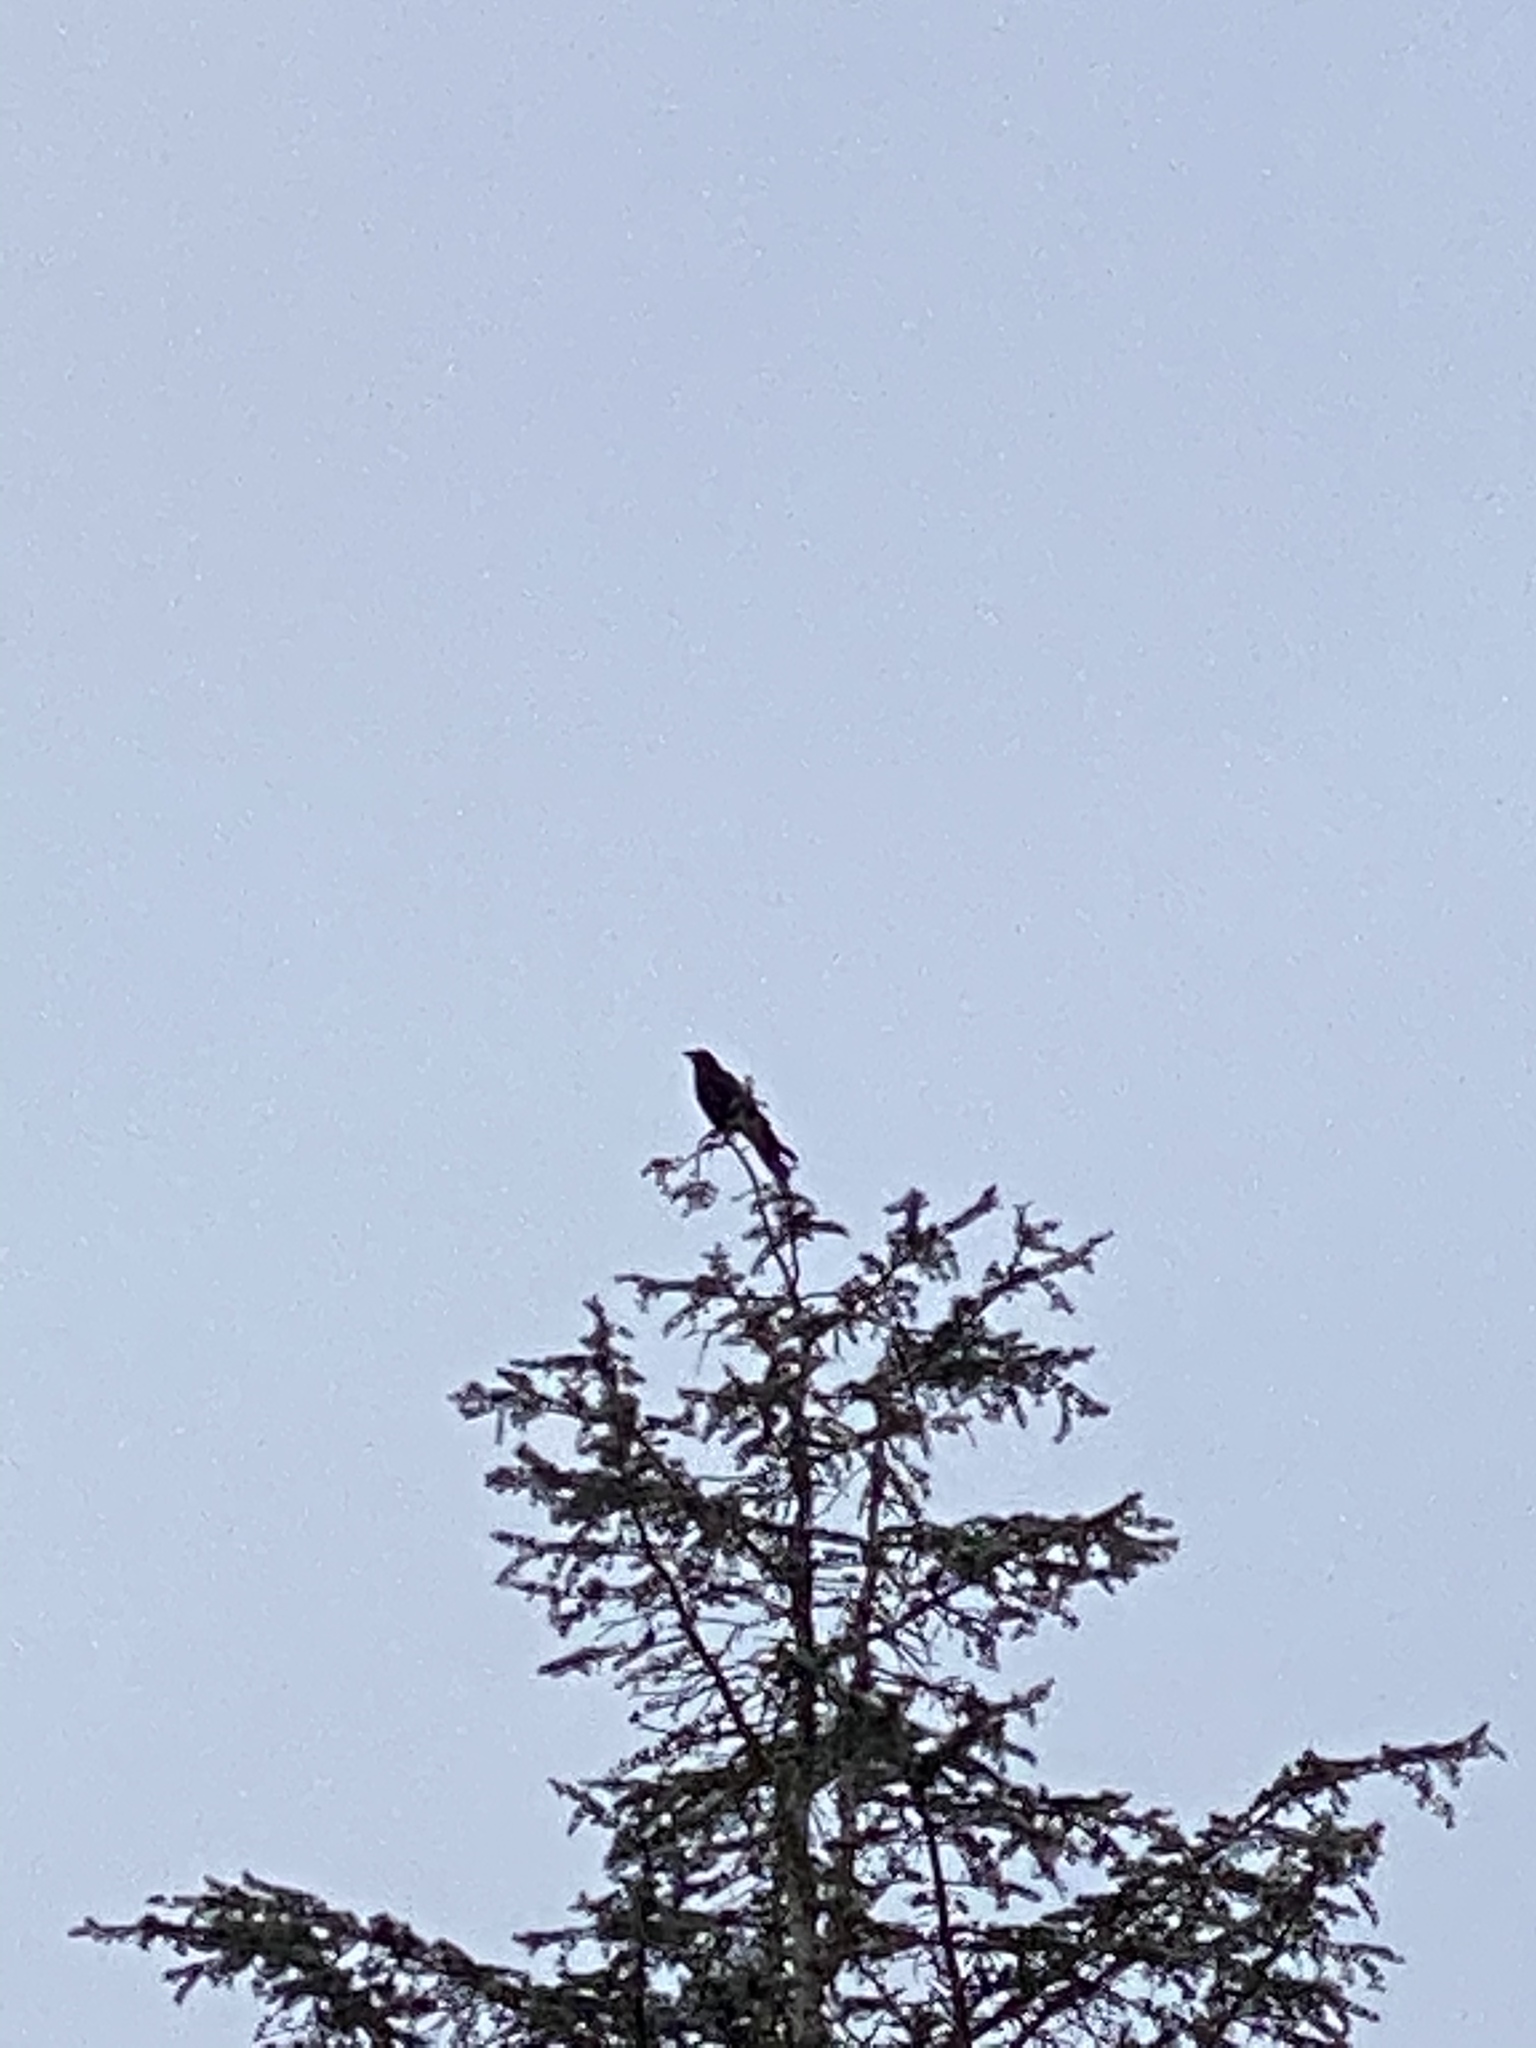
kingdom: Animalia
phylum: Chordata
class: Aves
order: Passeriformes
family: Corvidae
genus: Corvus
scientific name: Corvus brachyrhynchos
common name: American crow
